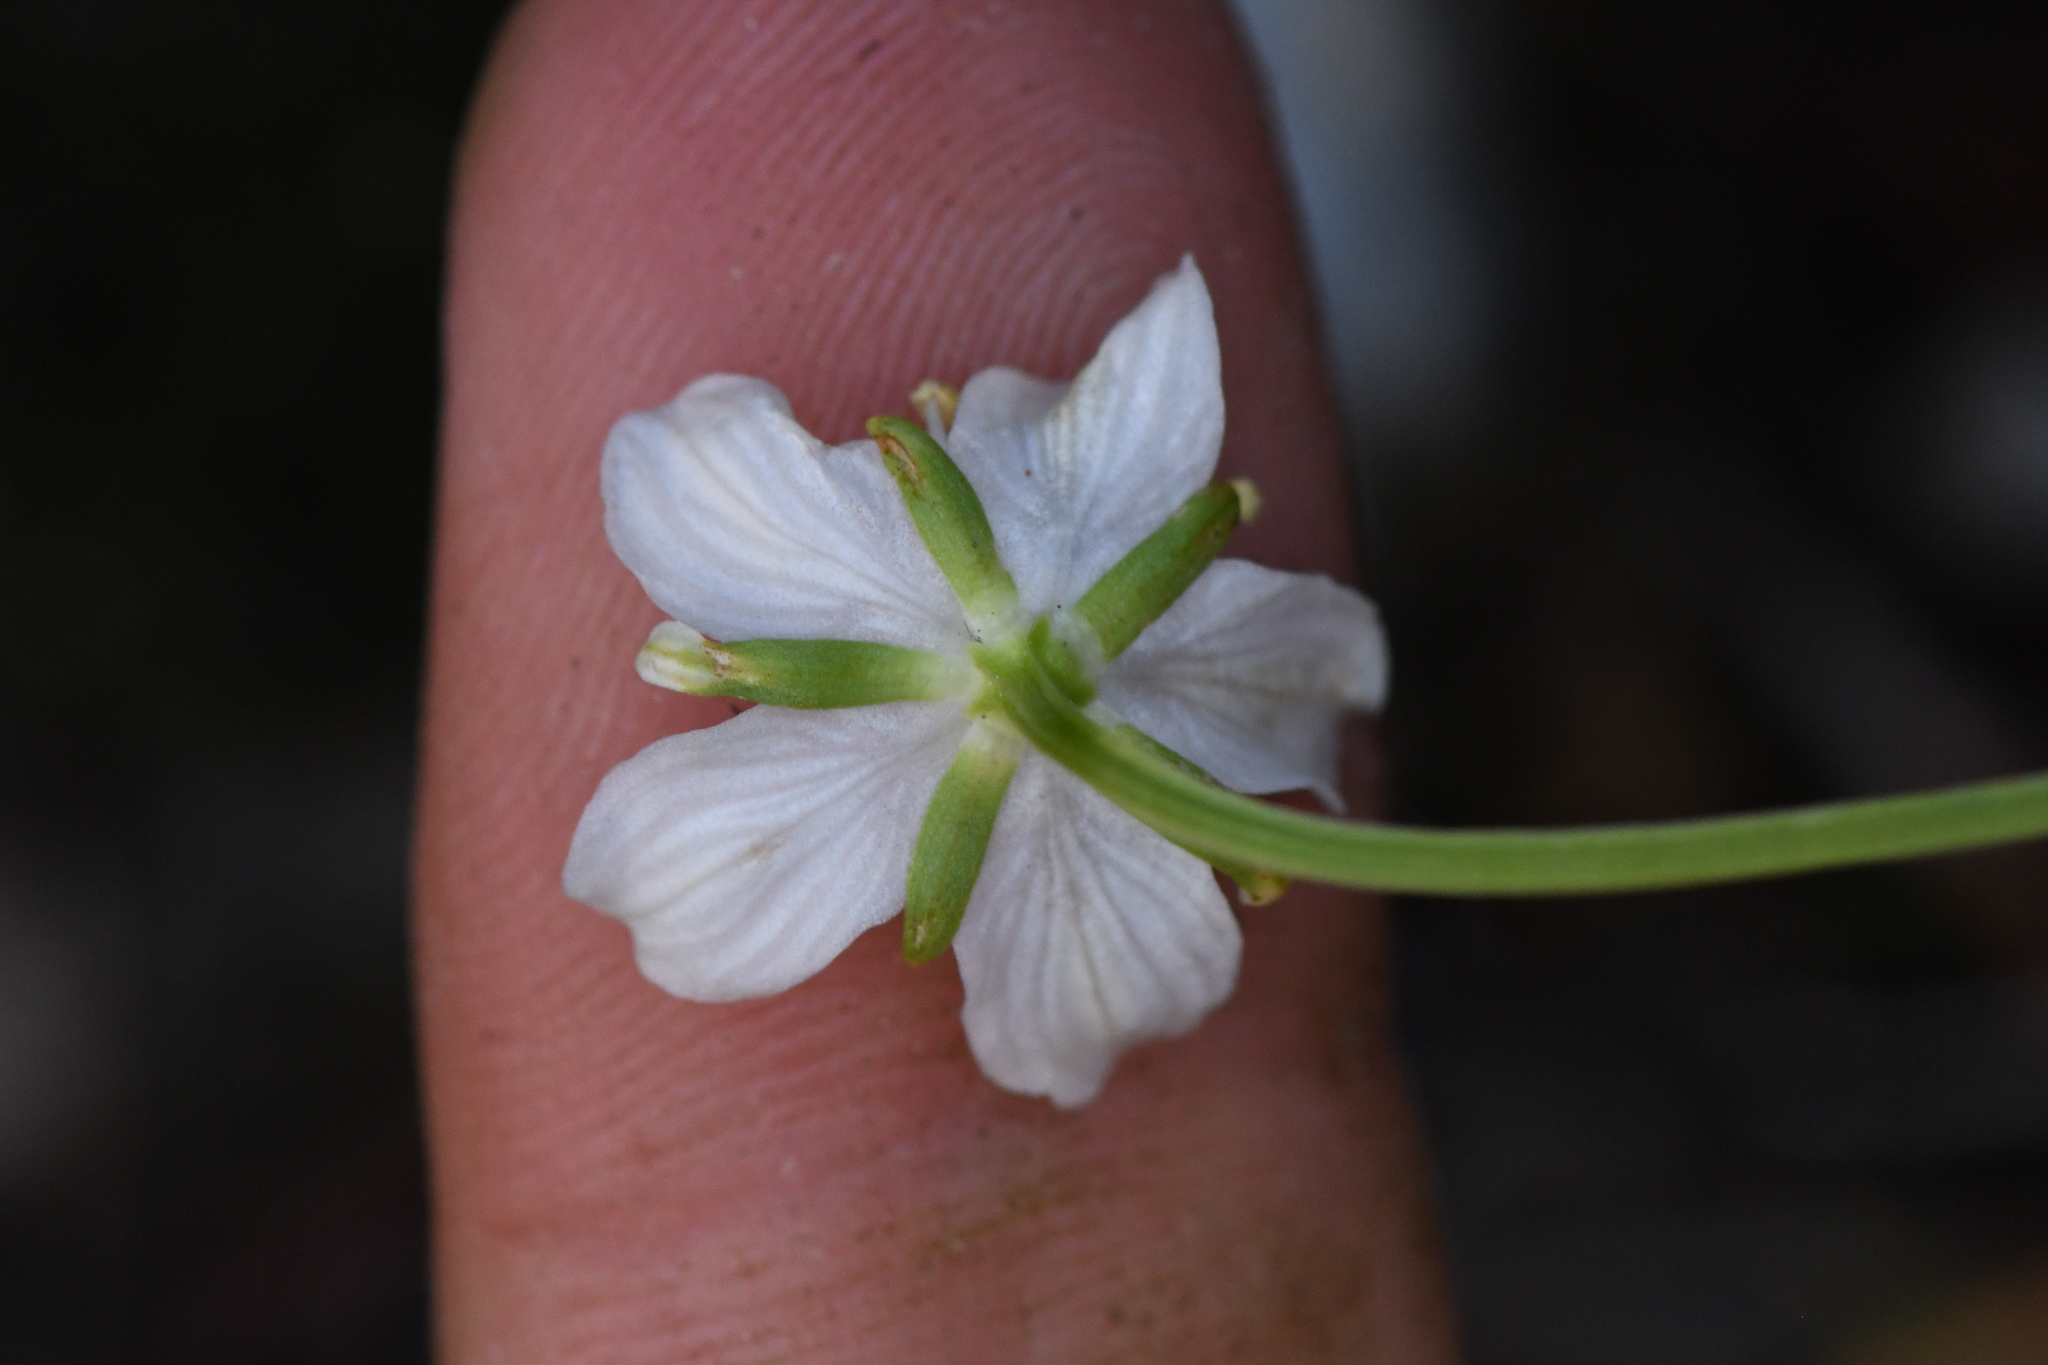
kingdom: Plantae
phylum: Tracheophyta
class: Magnoliopsida
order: Celastrales
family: Parnassiaceae
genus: Parnassia
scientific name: Parnassia parviflora
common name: Small-flowered grass-of-parnassus
